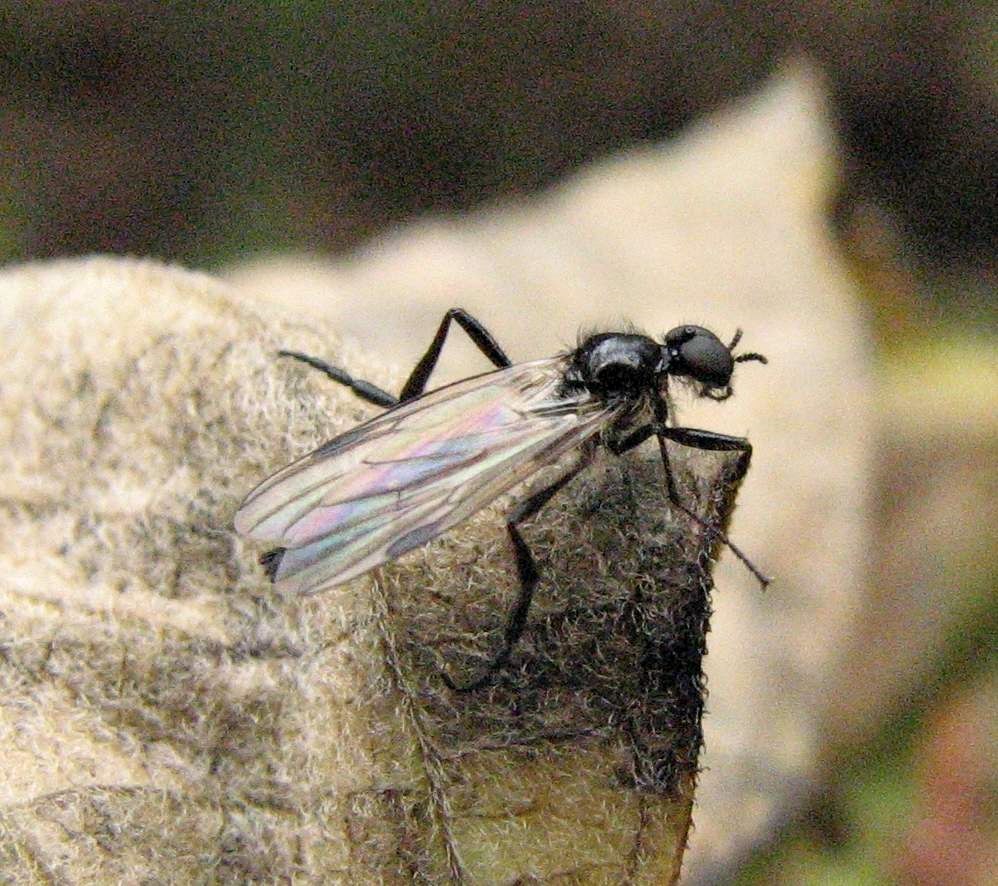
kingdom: Animalia
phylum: Arthropoda
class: Insecta
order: Diptera
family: Bibionidae
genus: Bibio
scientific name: Bibio slossonae
